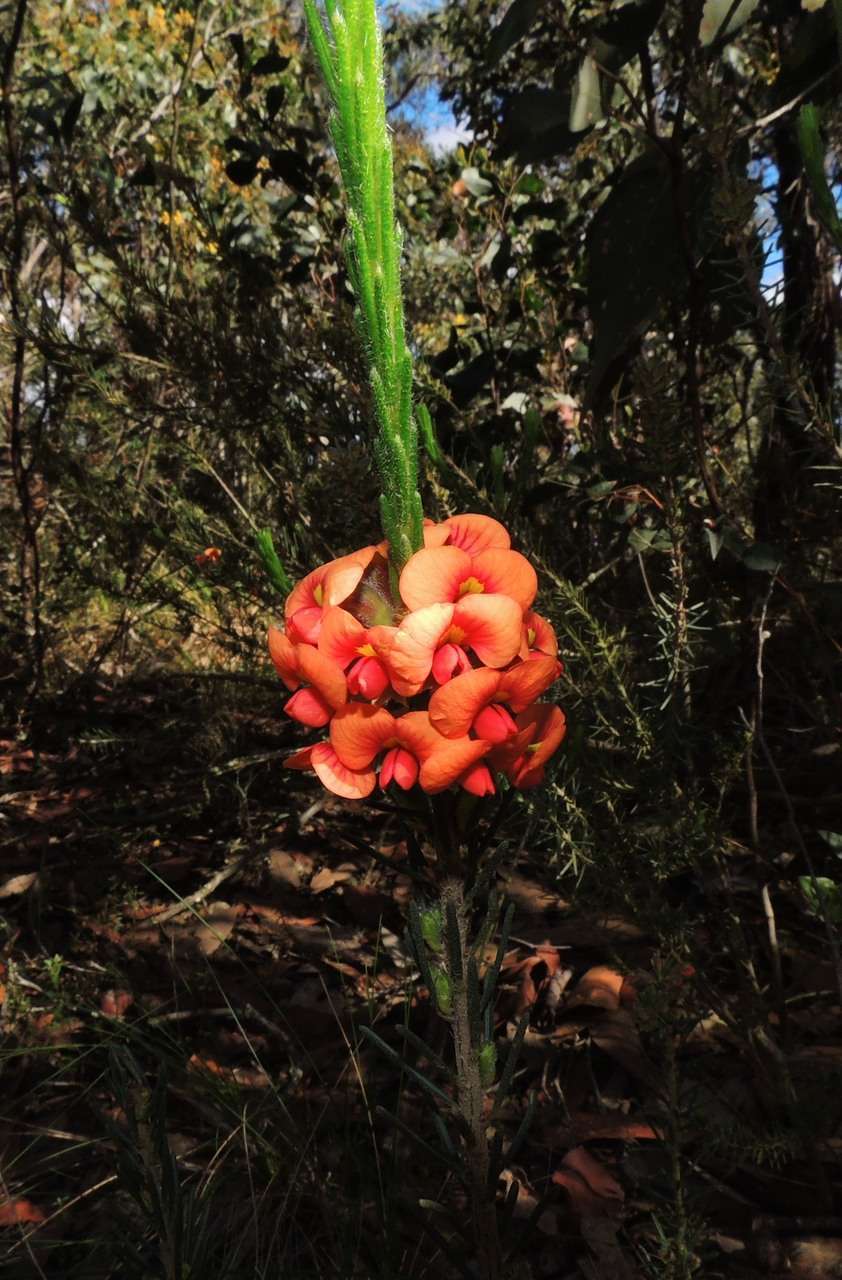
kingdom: Plantae
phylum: Tracheophyta
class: Magnoliopsida
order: Fabales
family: Fabaceae
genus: Dillwynia
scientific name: Dillwynia sericea
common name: Showy parrot-pea
